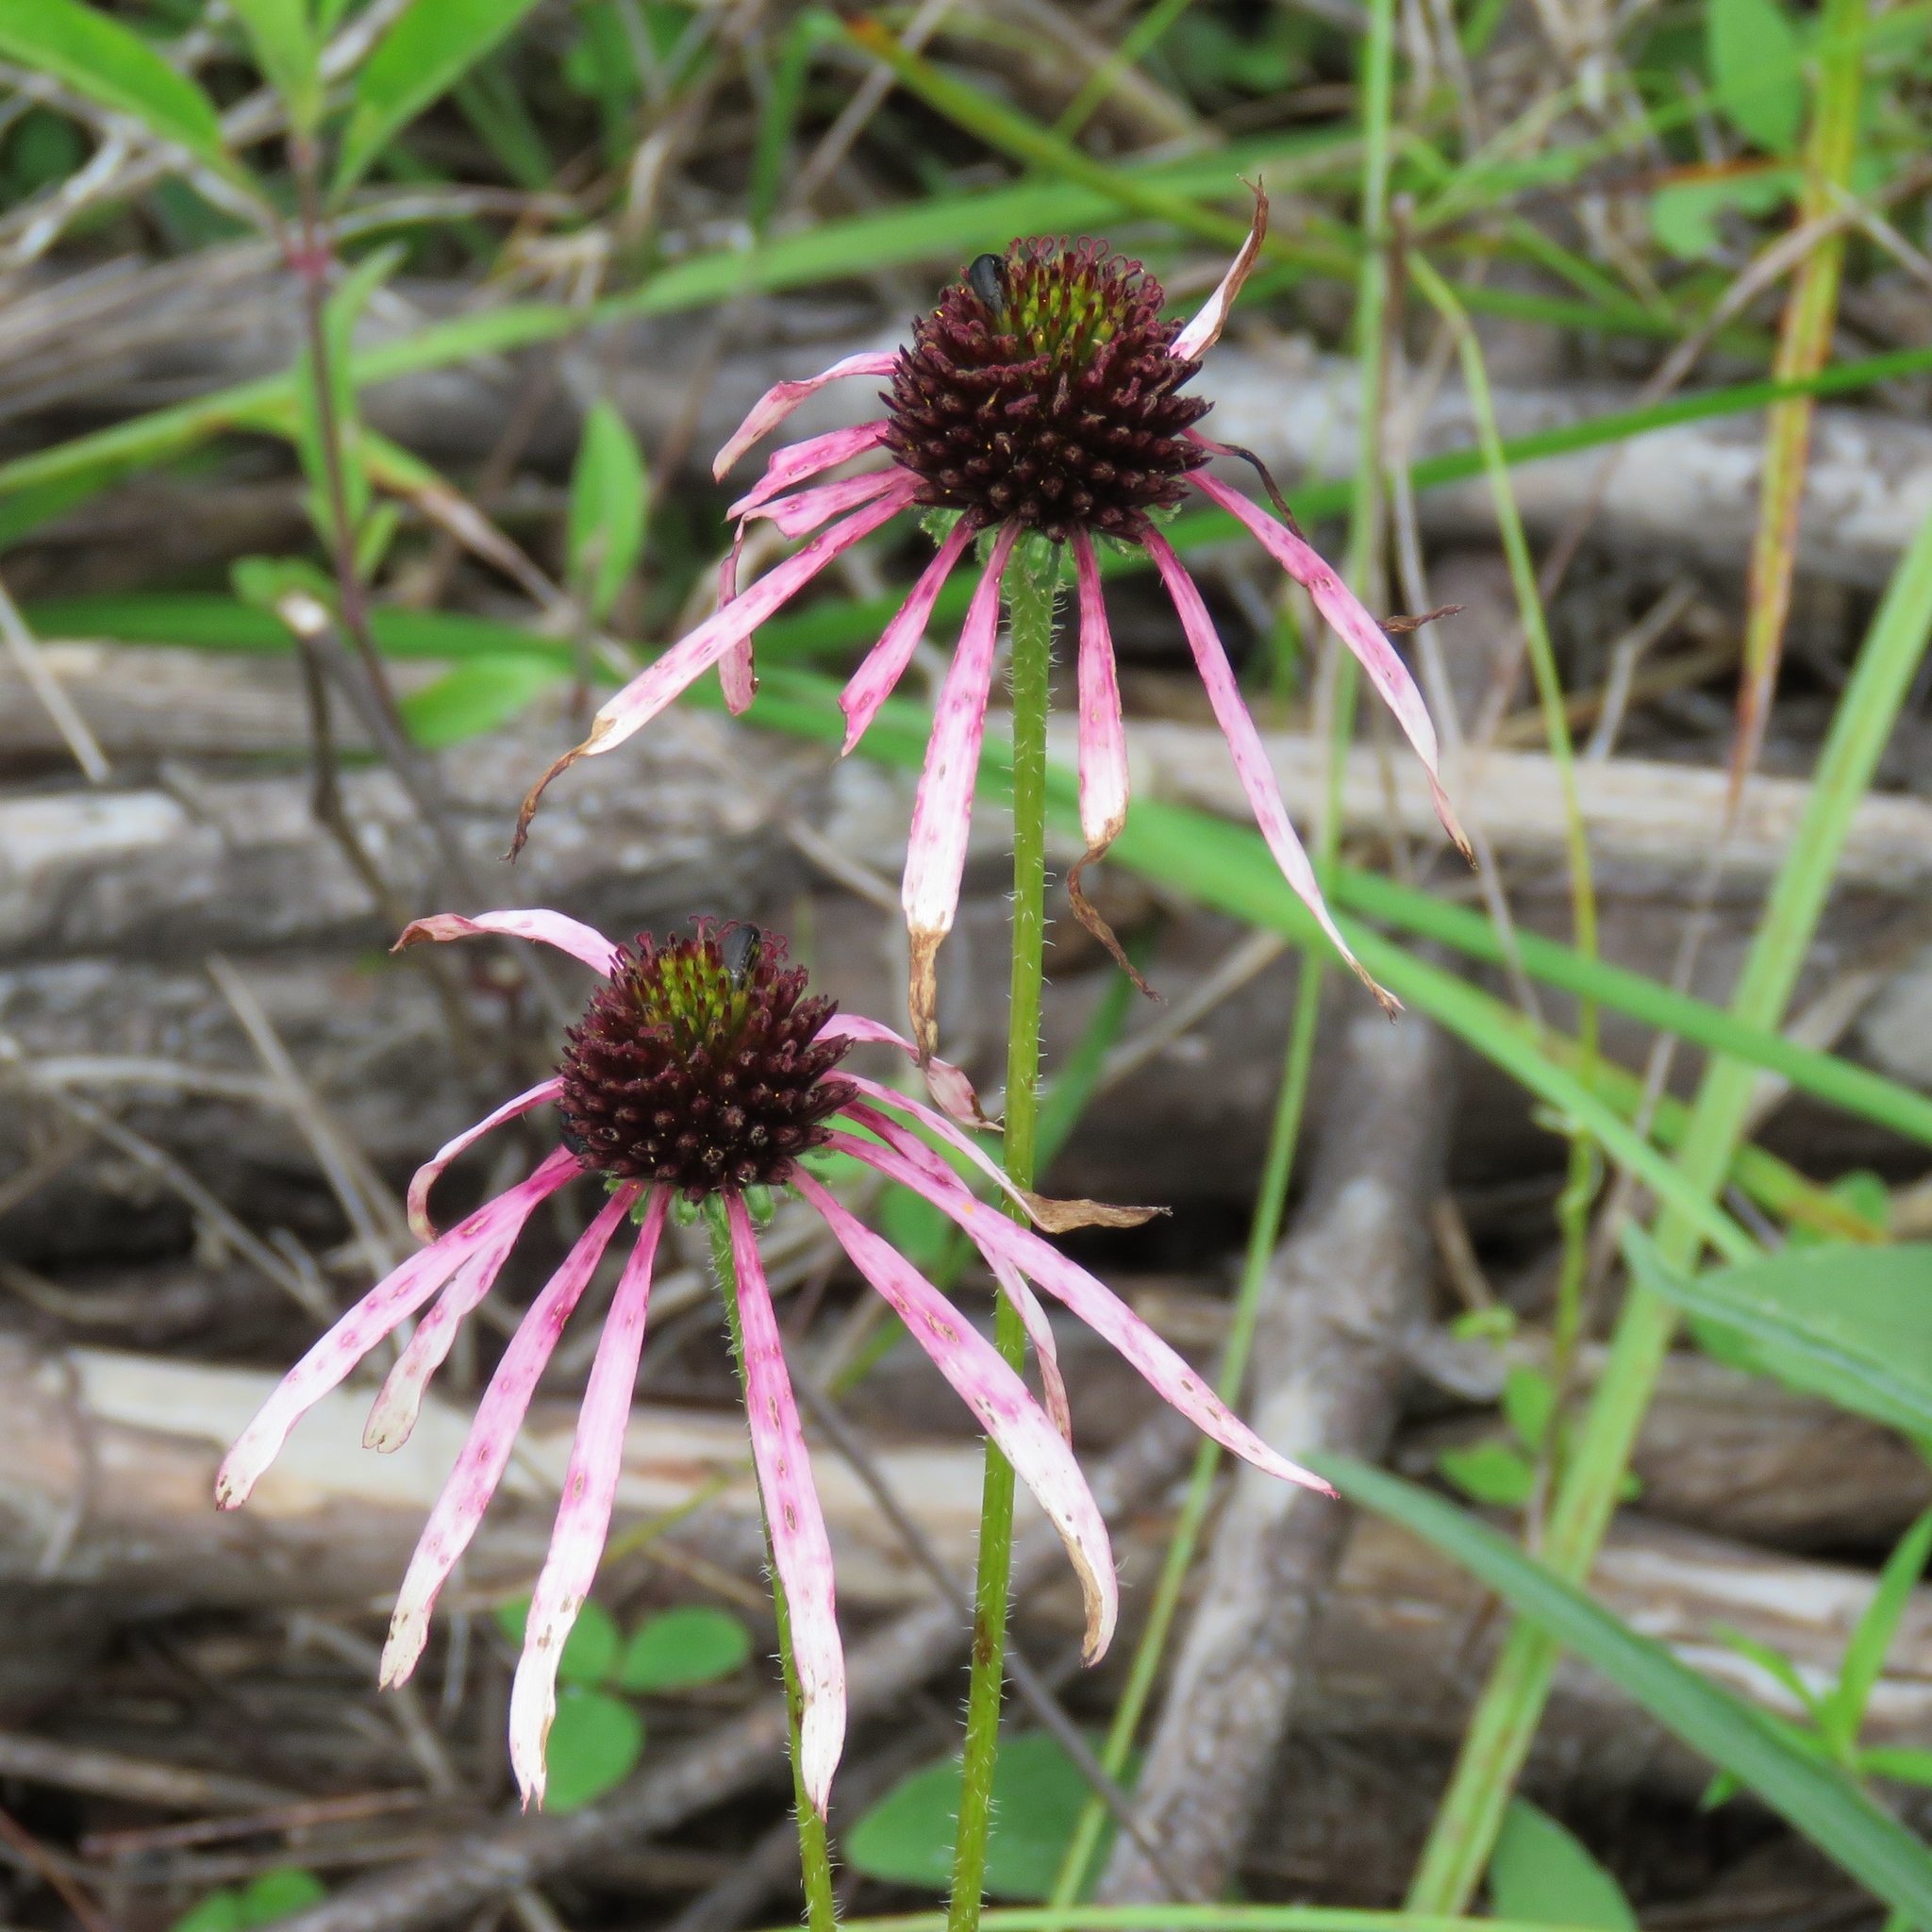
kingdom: Plantae
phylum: Tracheophyta
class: Magnoliopsida
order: Asterales
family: Asteraceae
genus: Echinacea
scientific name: Echinacea sanguinea
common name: Sanguine purple-coneflower
